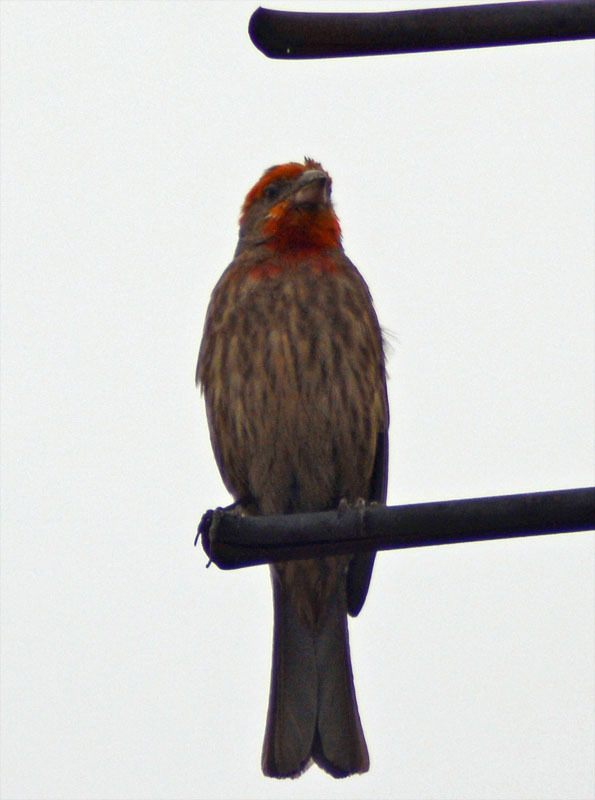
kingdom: Animalia
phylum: Chordata
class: Aves
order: Passeriformes
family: Fringillidae
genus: Haemorhous
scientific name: Haemorhous mexicanus
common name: House finch
